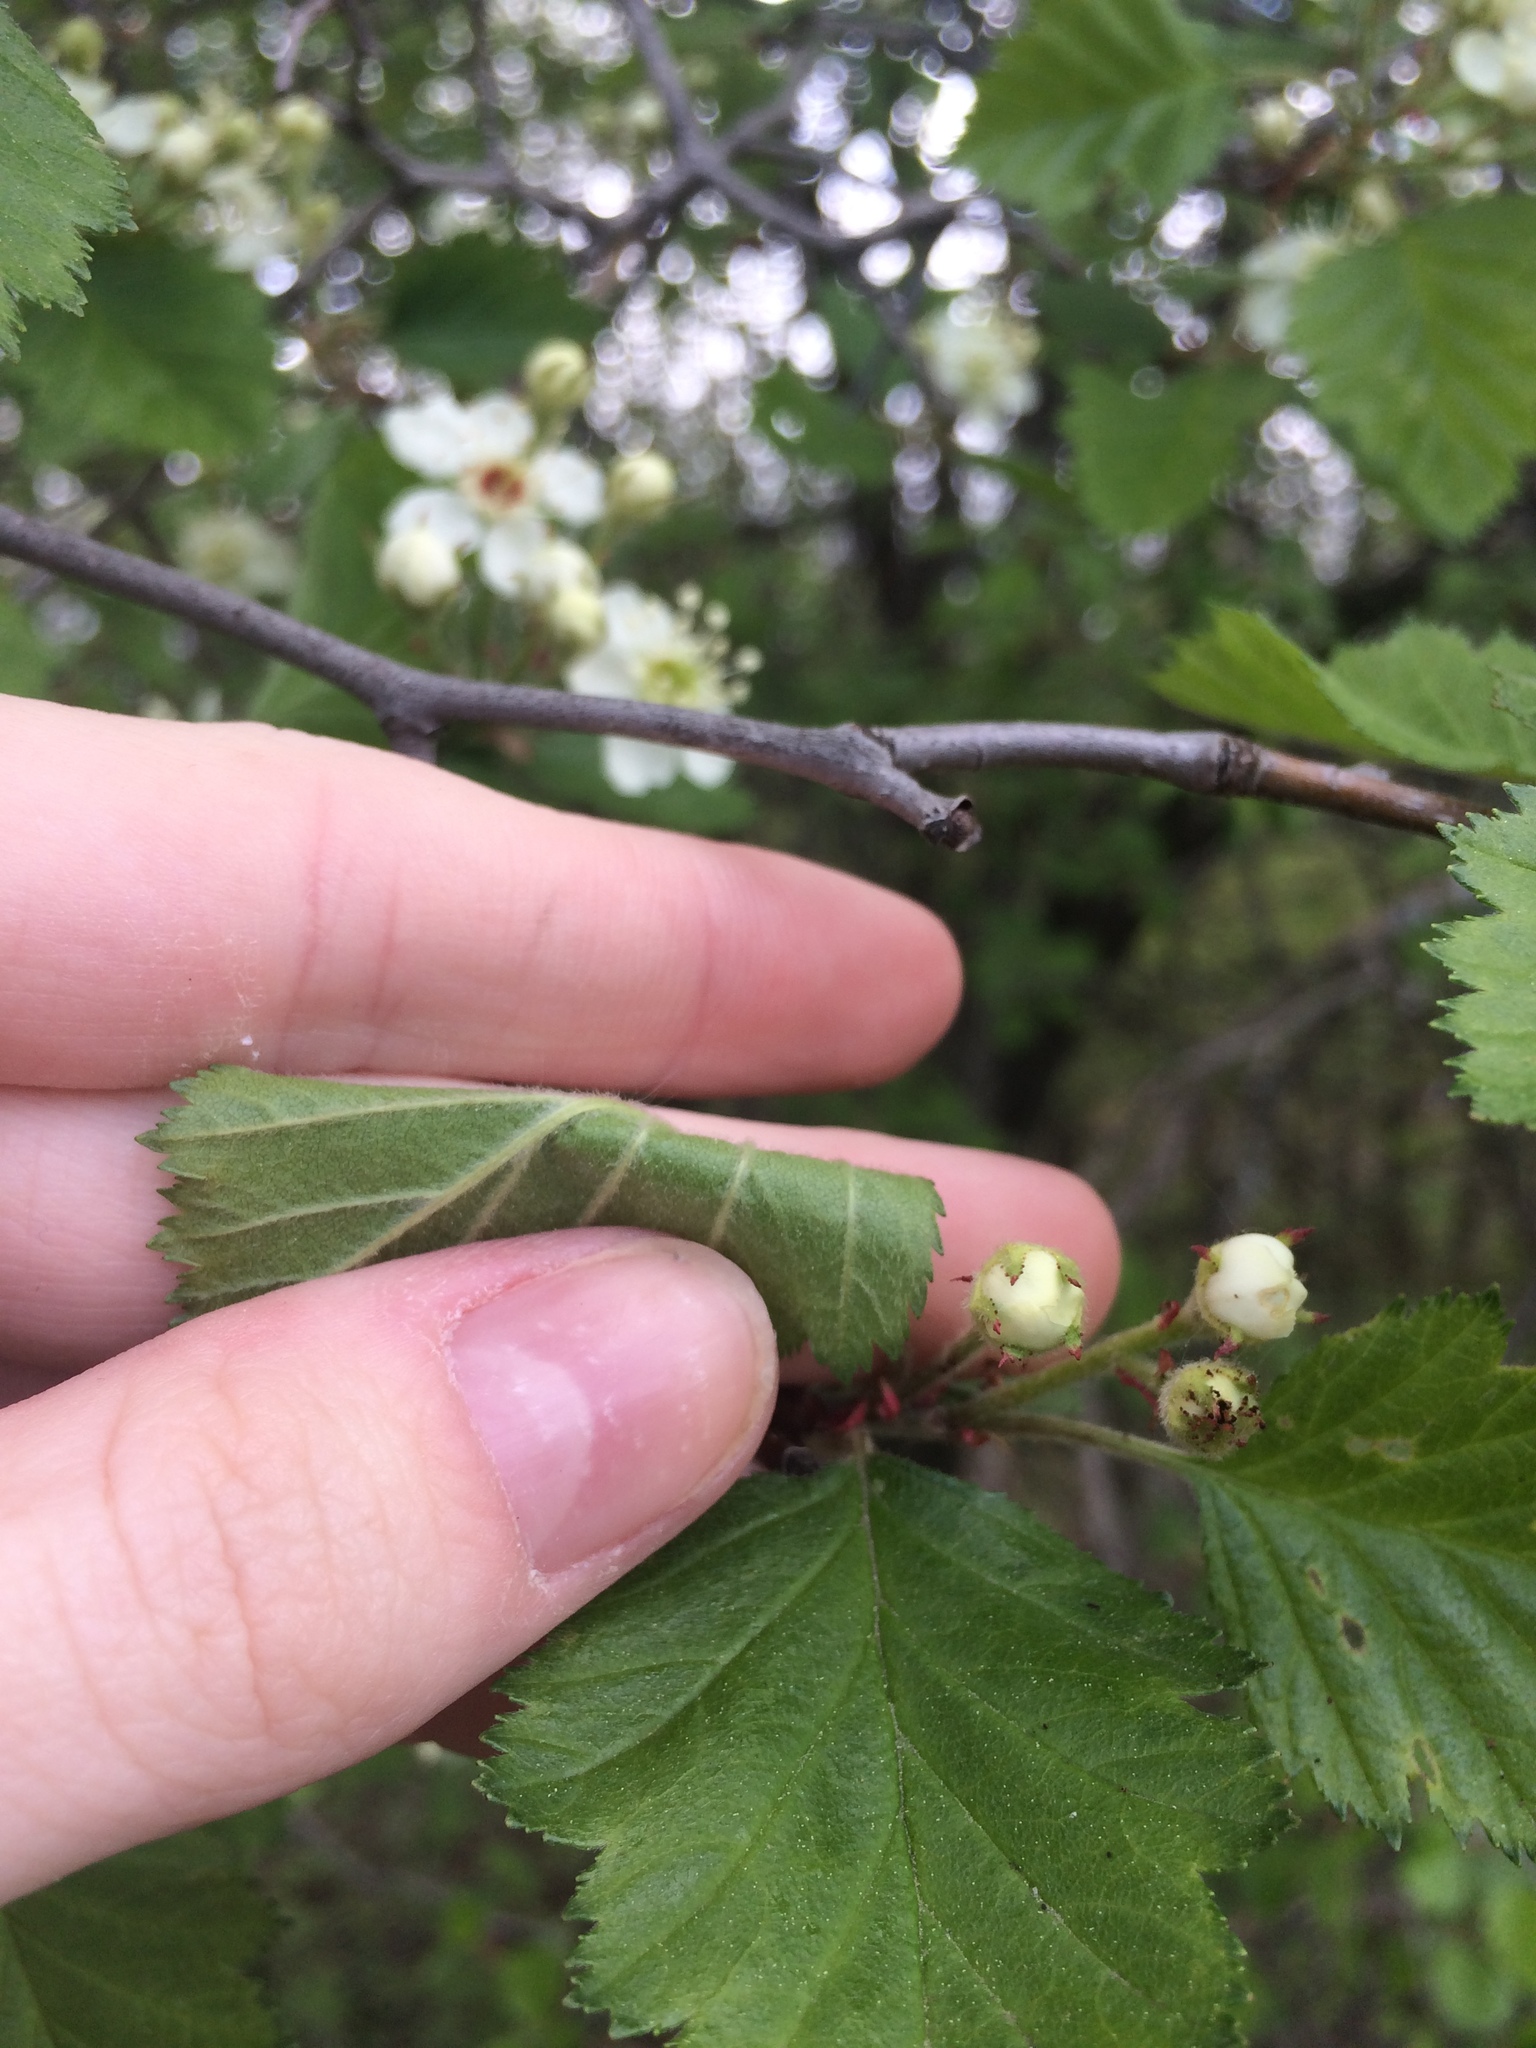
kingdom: Plantae
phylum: Tracheophyta
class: Magnoliopsida
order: Rosales
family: Rosaceae
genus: Crataegus
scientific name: Crataegus submollis
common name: Hairy cockspurthorn
